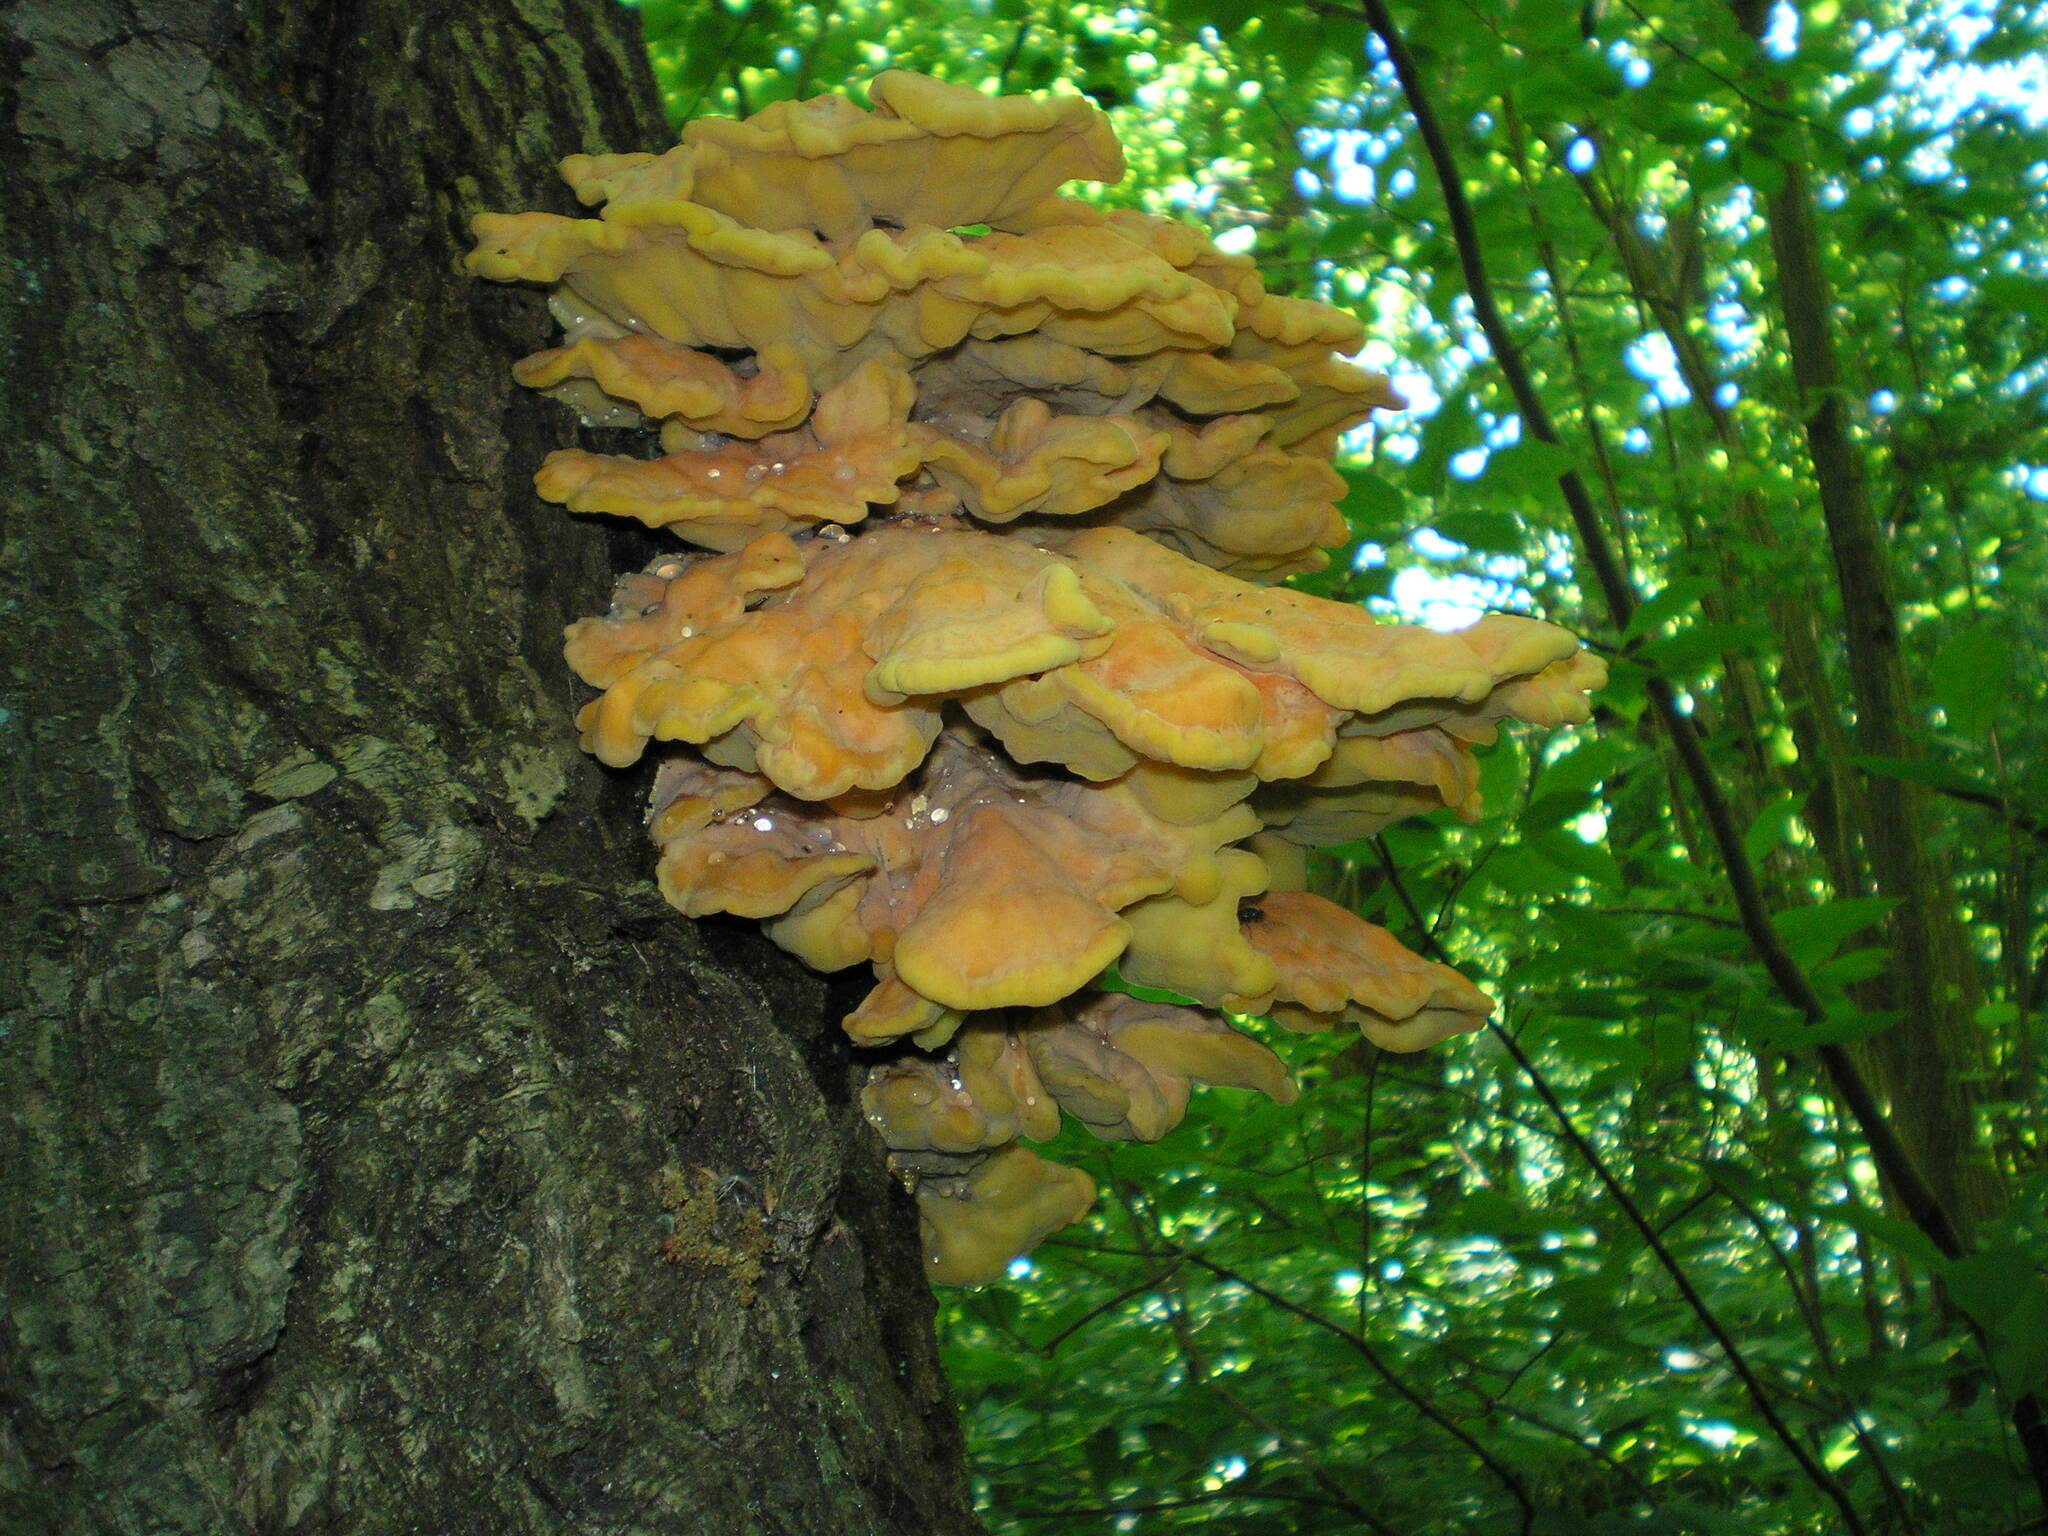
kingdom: Fungi
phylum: Basidiomycota
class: Agaricomycetes
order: Polyporales
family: Laetiporaceae
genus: Laetiporus
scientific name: Laetiporus sulphureus
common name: Chicken of the woods
